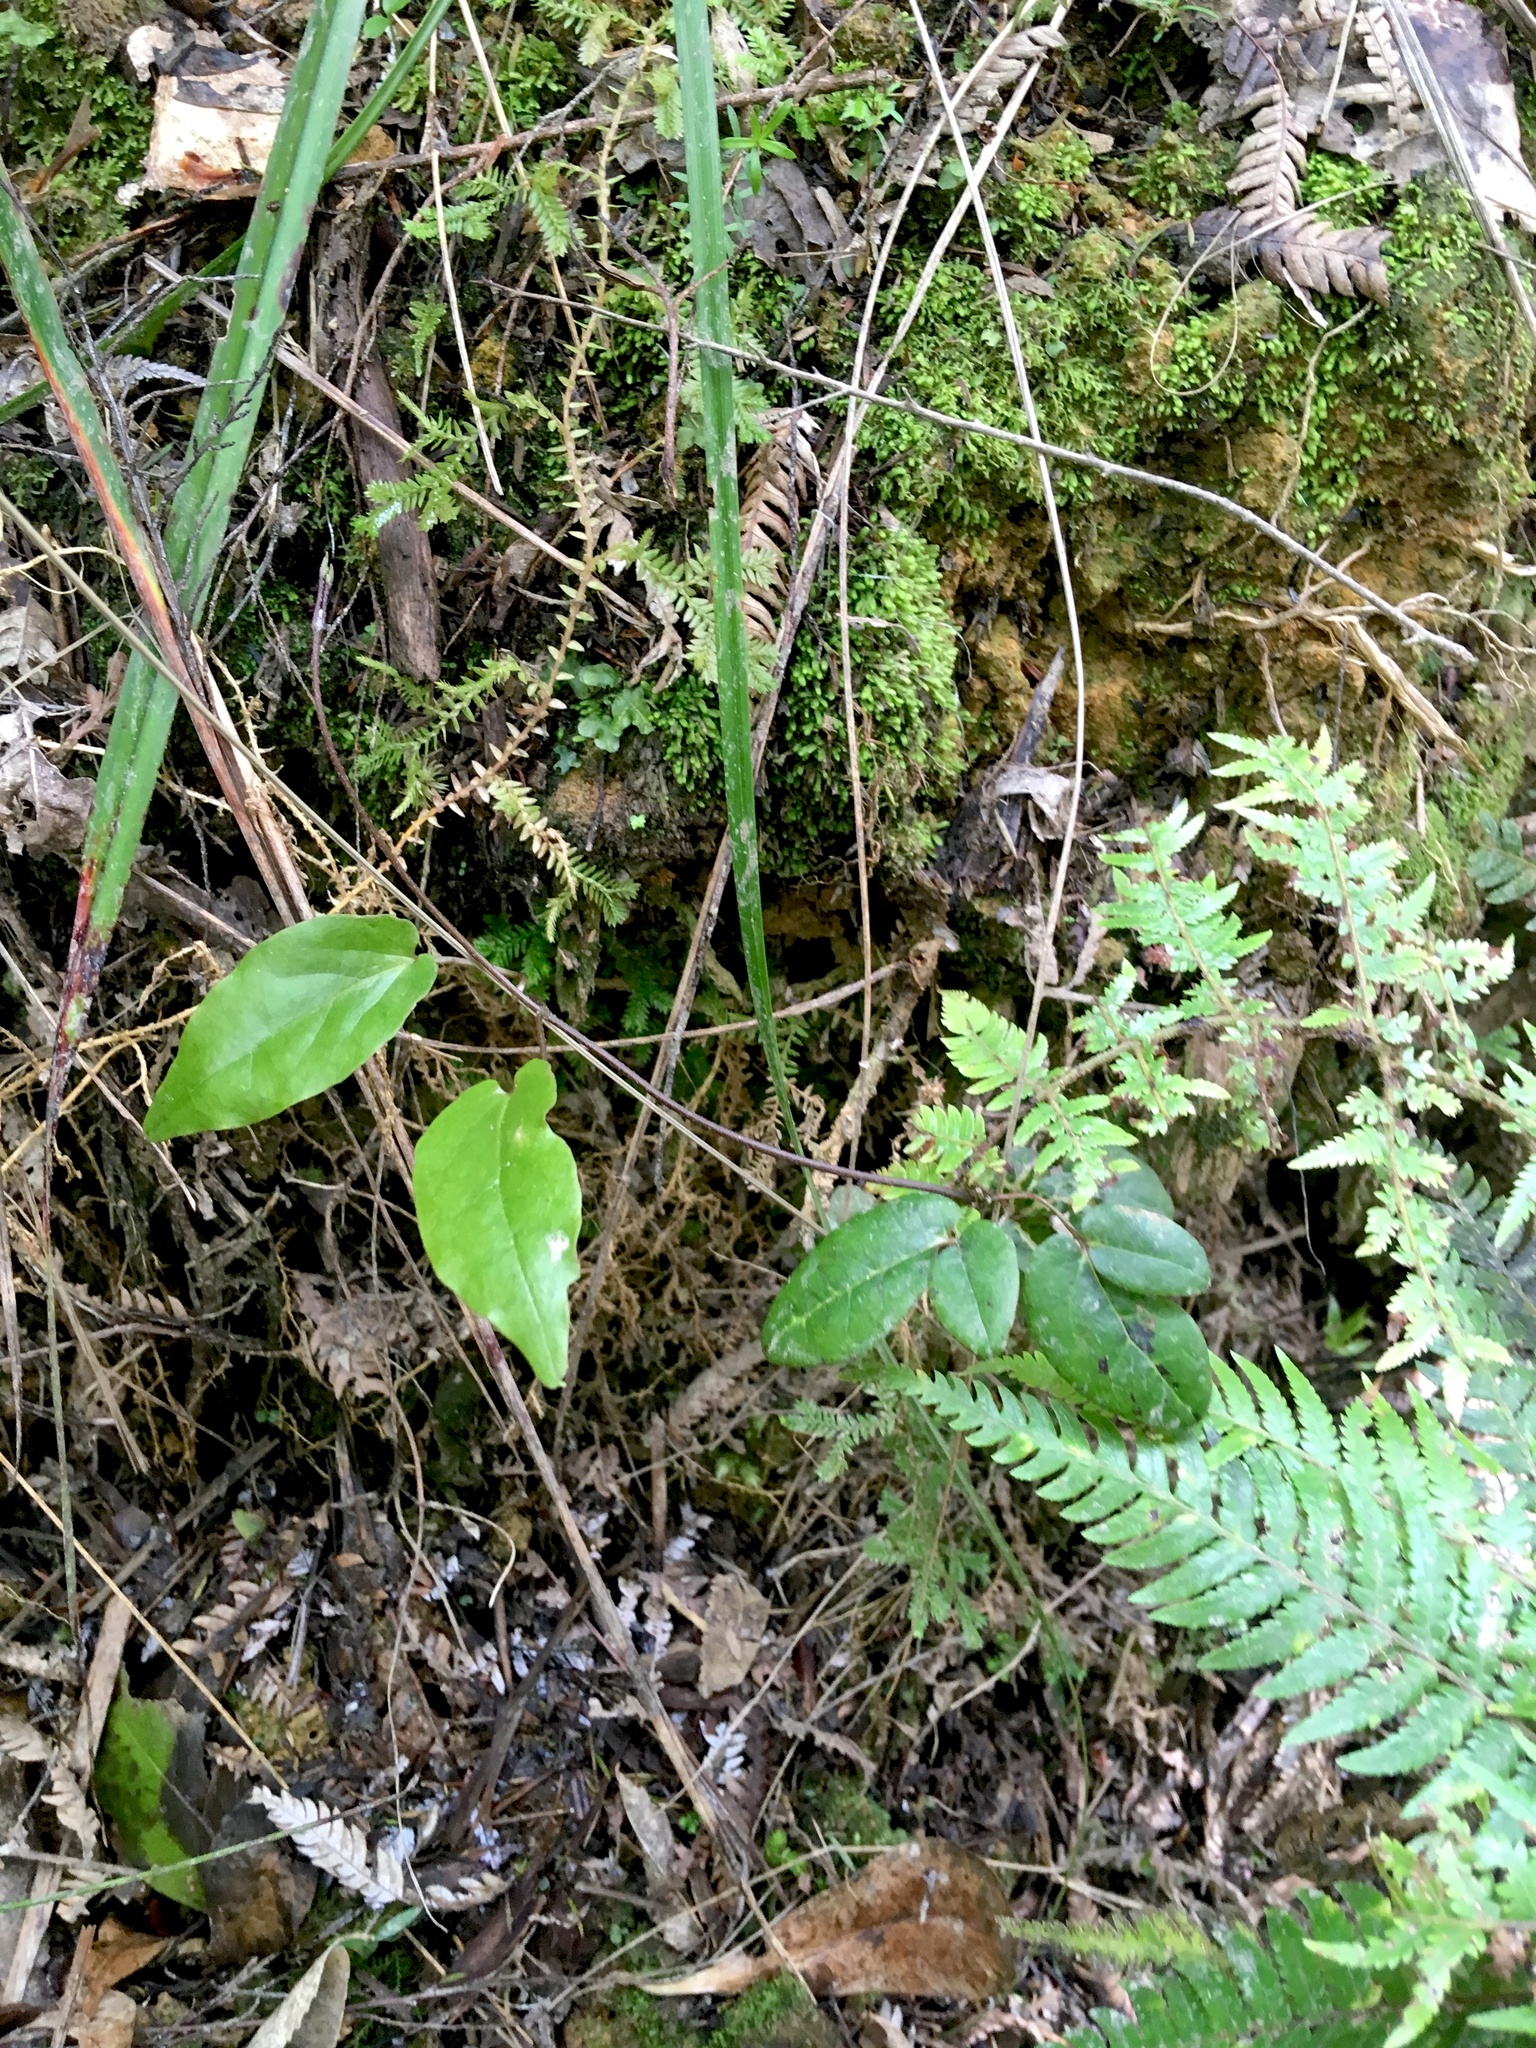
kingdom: Plantae
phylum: Tracheophyta
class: Lycopodiopsida
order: Selaginellales
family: Selaginellaceae
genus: Selaginella
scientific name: Selaginella kraussiana
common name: Krauss' spikemoss
